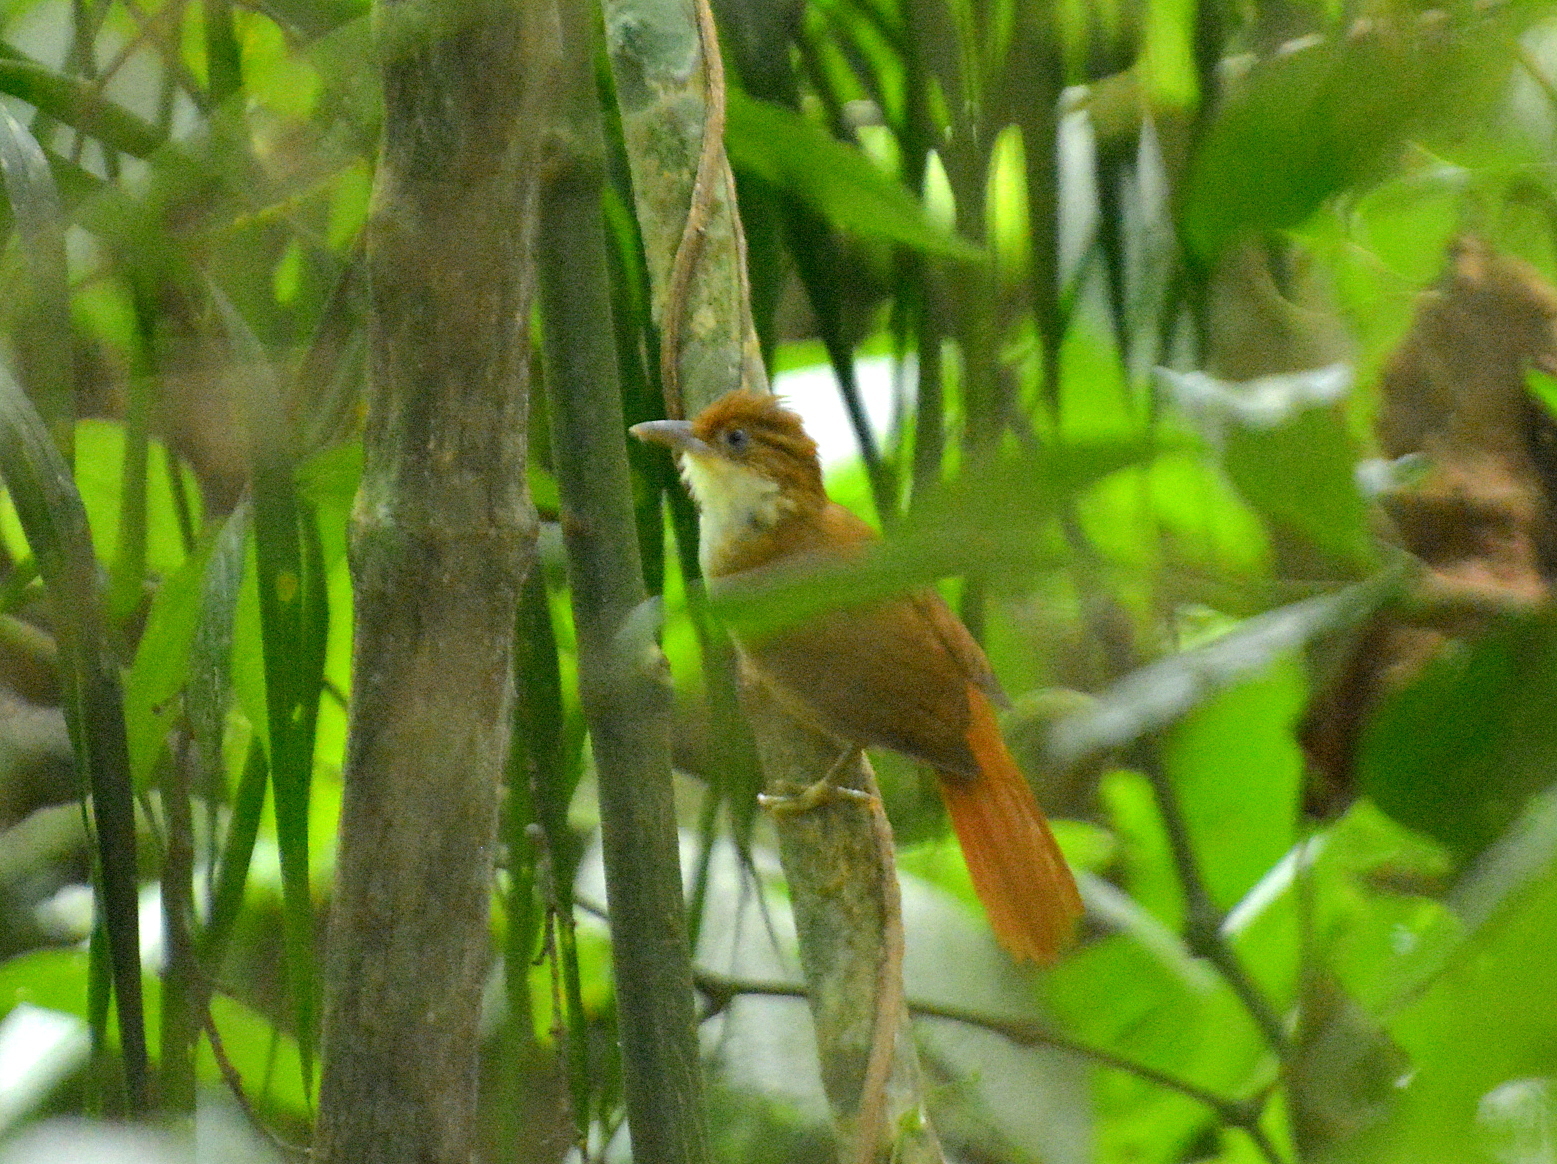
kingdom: Animalia
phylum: Chordata
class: Aves
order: Passeriformes
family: Furnariidae
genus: Automolus
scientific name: Automolus leucophthalmus
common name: White-eyed foliage-gleaner
